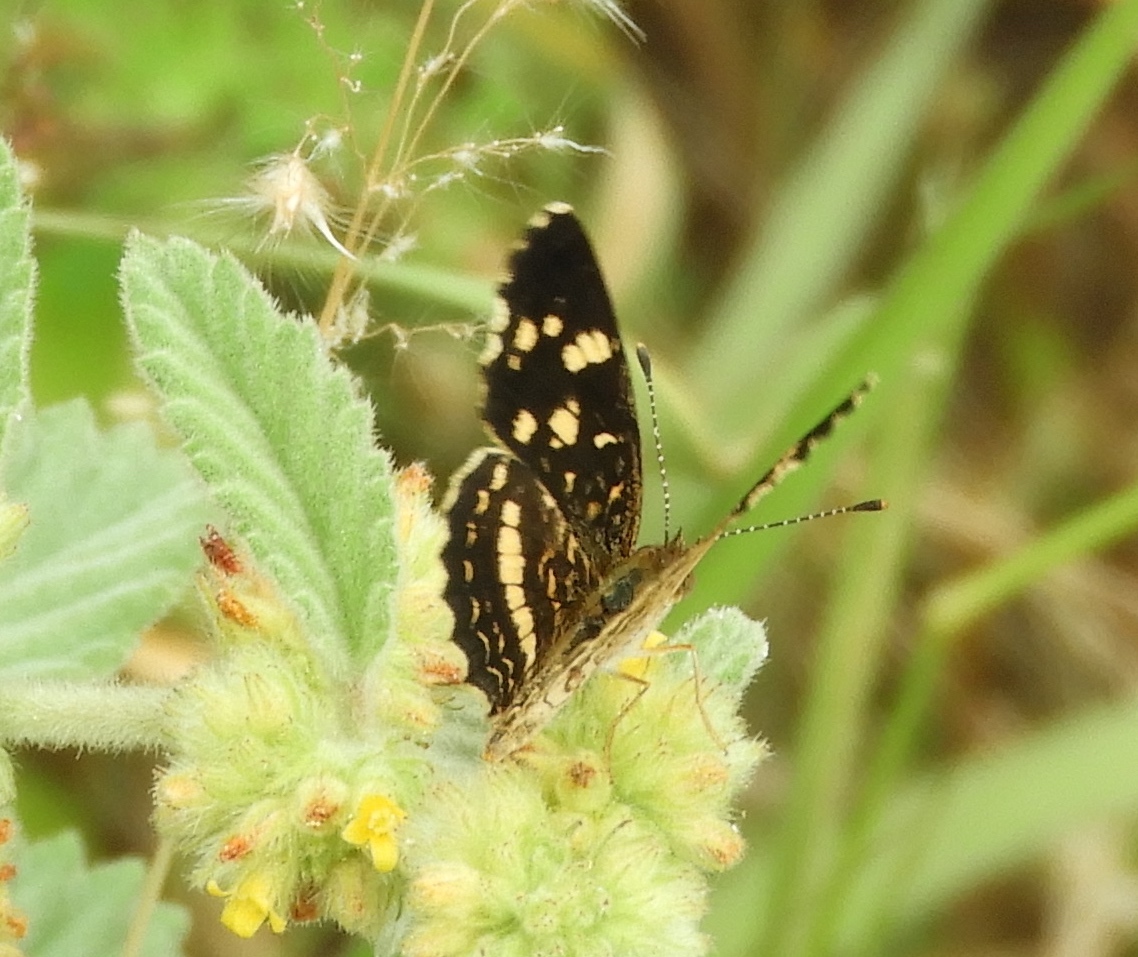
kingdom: Animalia
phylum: Arthropoda
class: Insecta
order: Lepidoptera
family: Nymphalidae
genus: Anthanassa
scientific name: Anthanassa tulcis
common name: Pale-banded crescent
